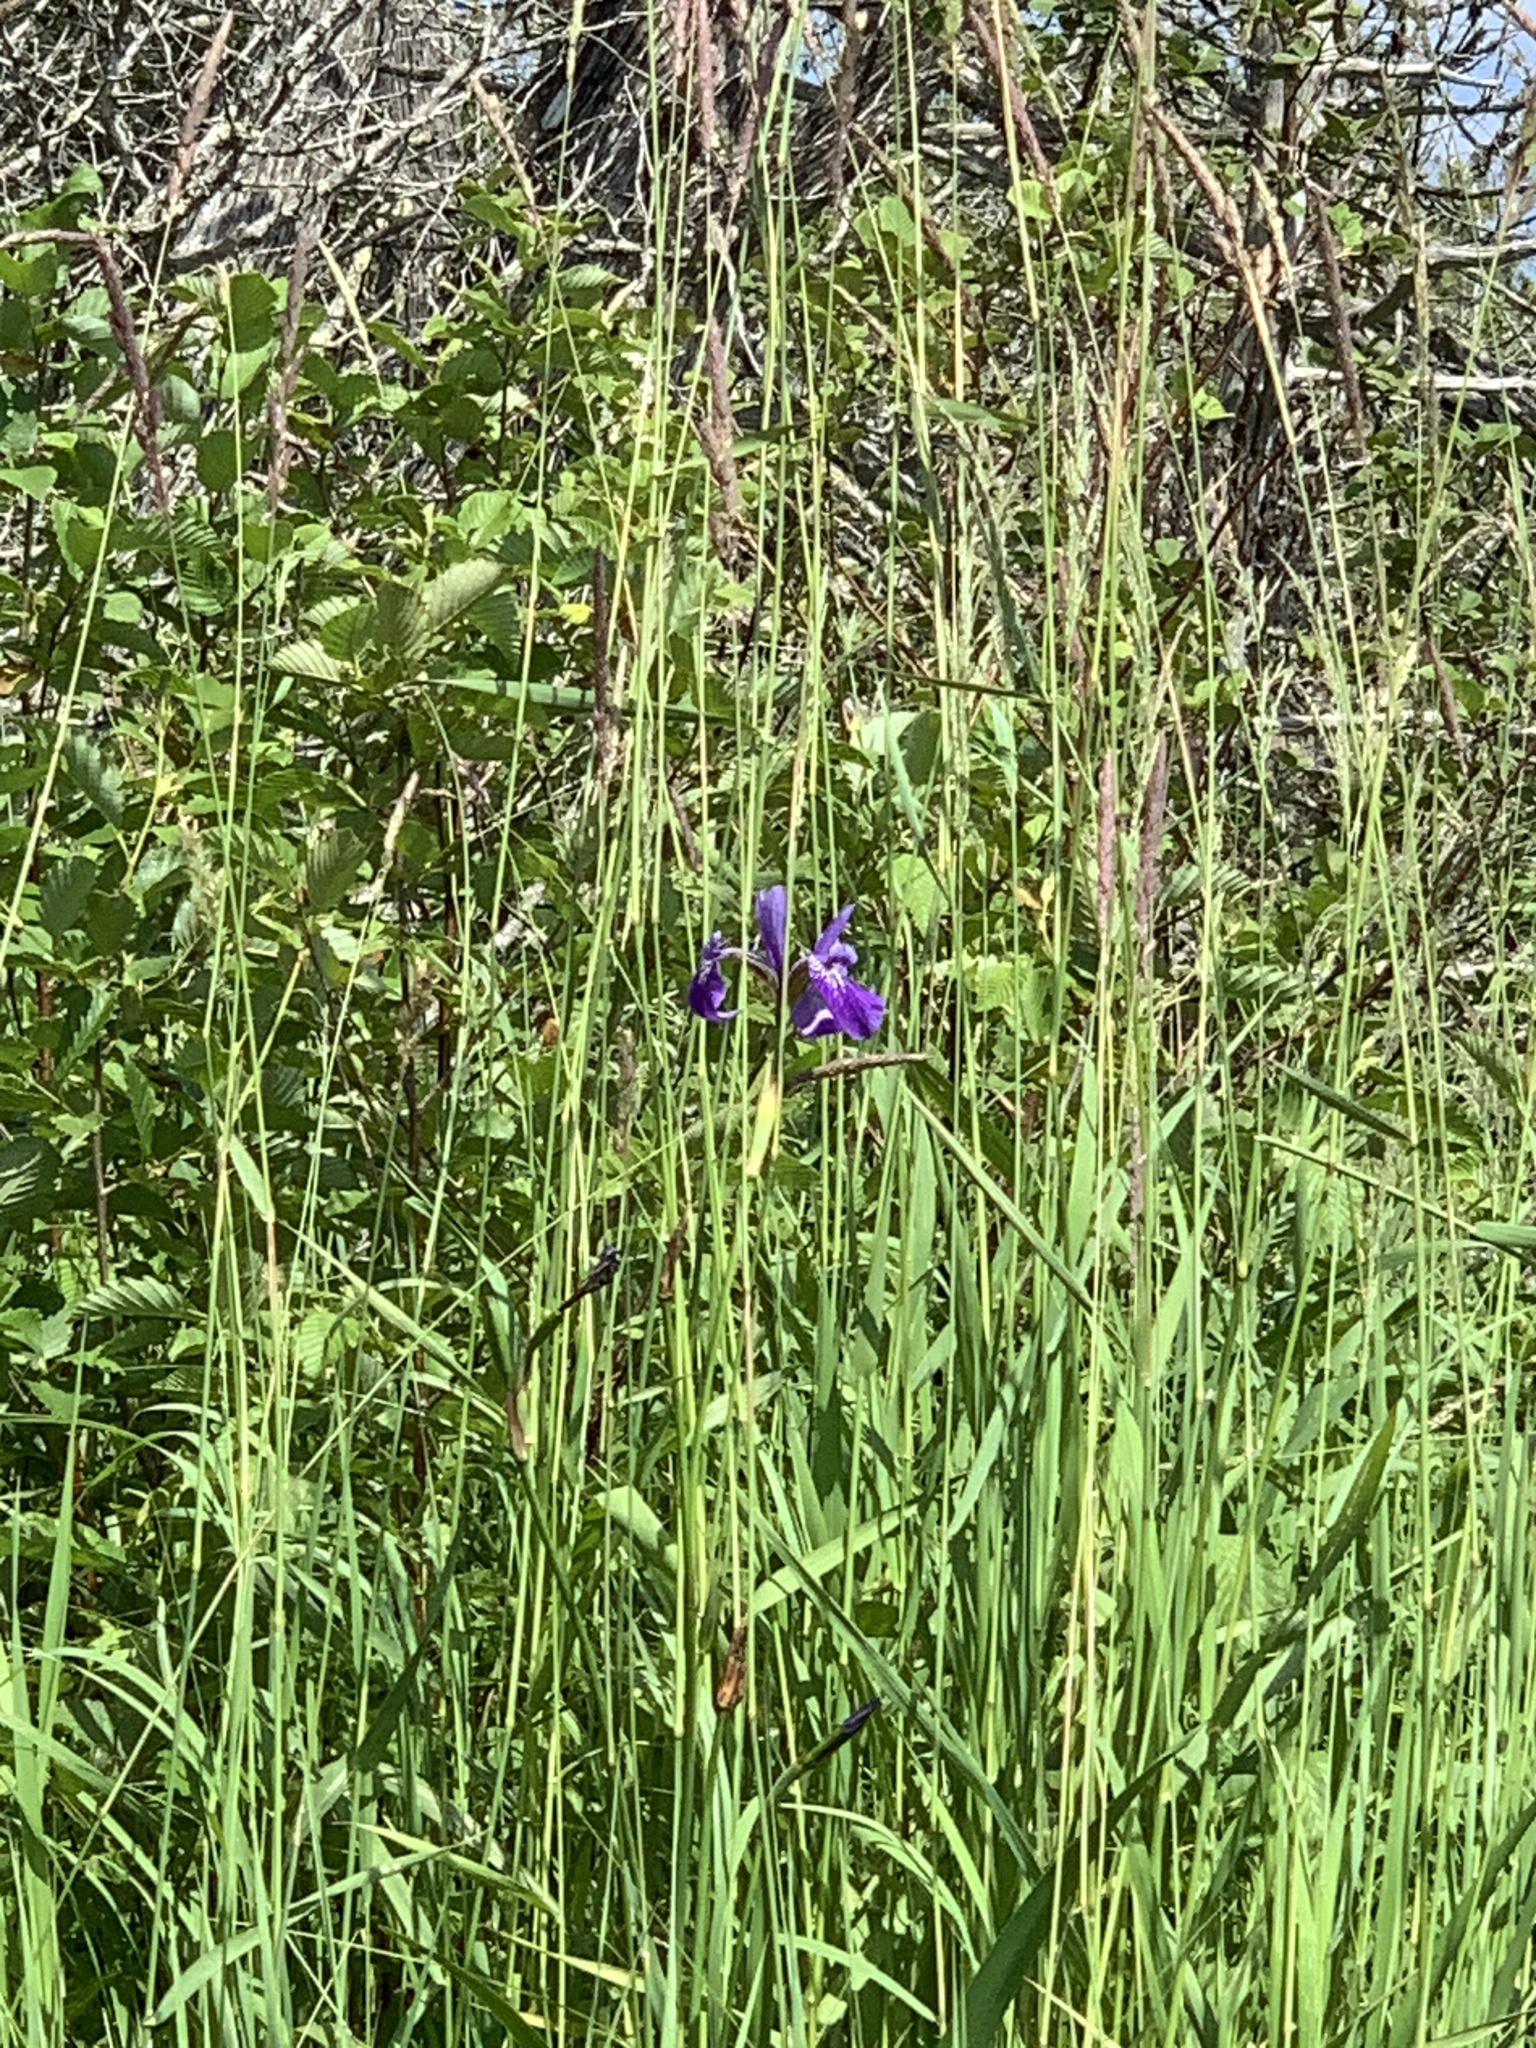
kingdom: Plantae
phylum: Tracheophyta
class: Liliopsida
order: Asparagales
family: Iridaceae
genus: Iris
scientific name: Iris versicolor
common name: Purple iris
